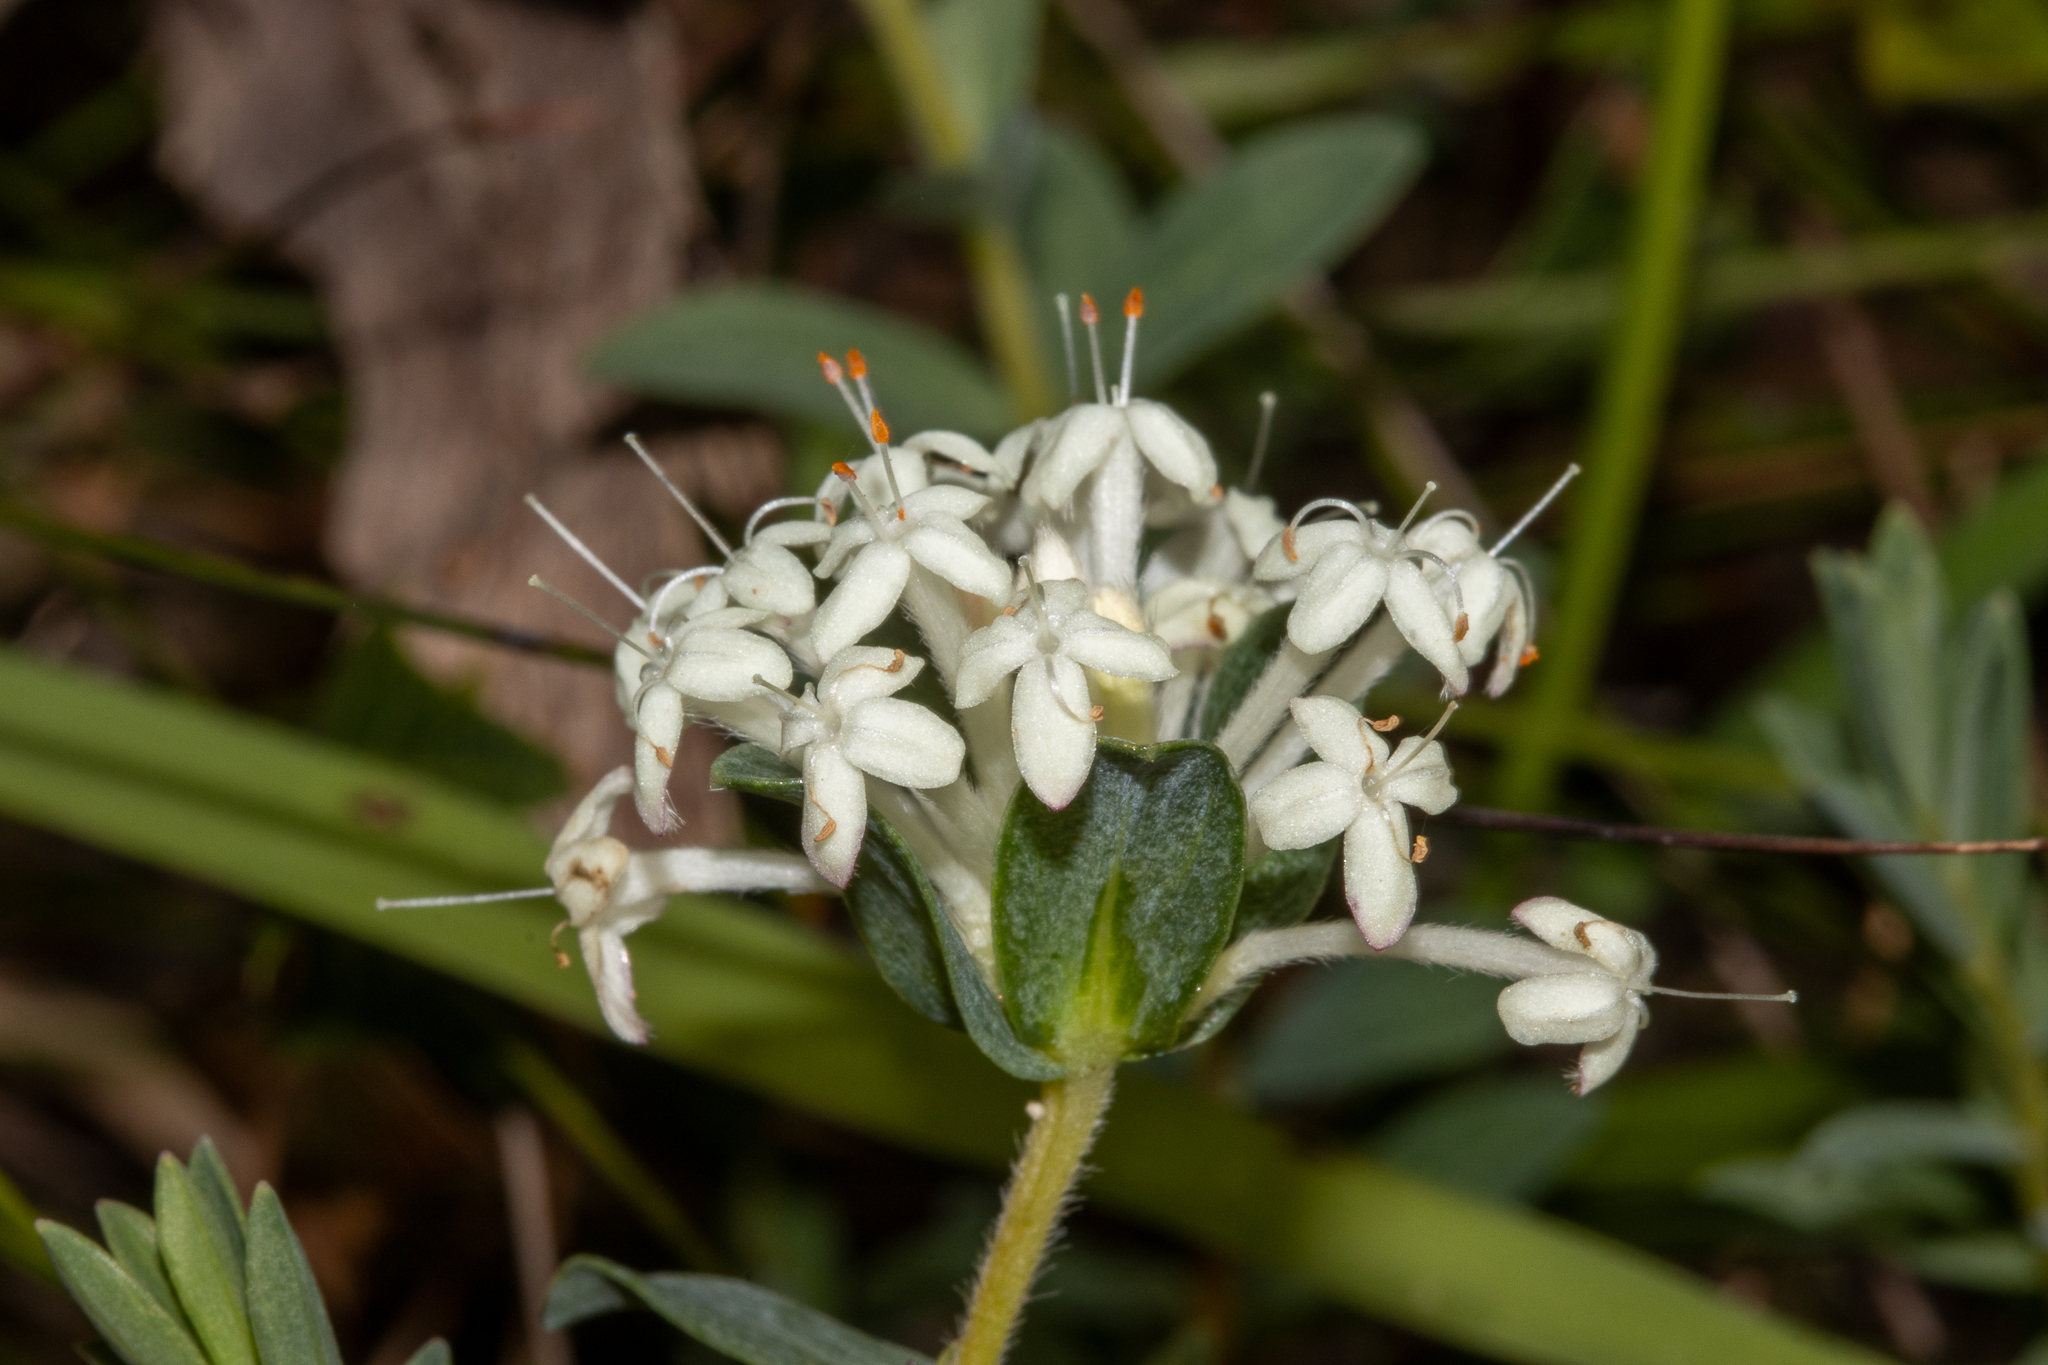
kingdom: Plantae
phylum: Tracheophyta
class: Magnoliopsida
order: Malvales
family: Thymelaeaceae
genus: Pimelea
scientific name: Pimelea humilis
